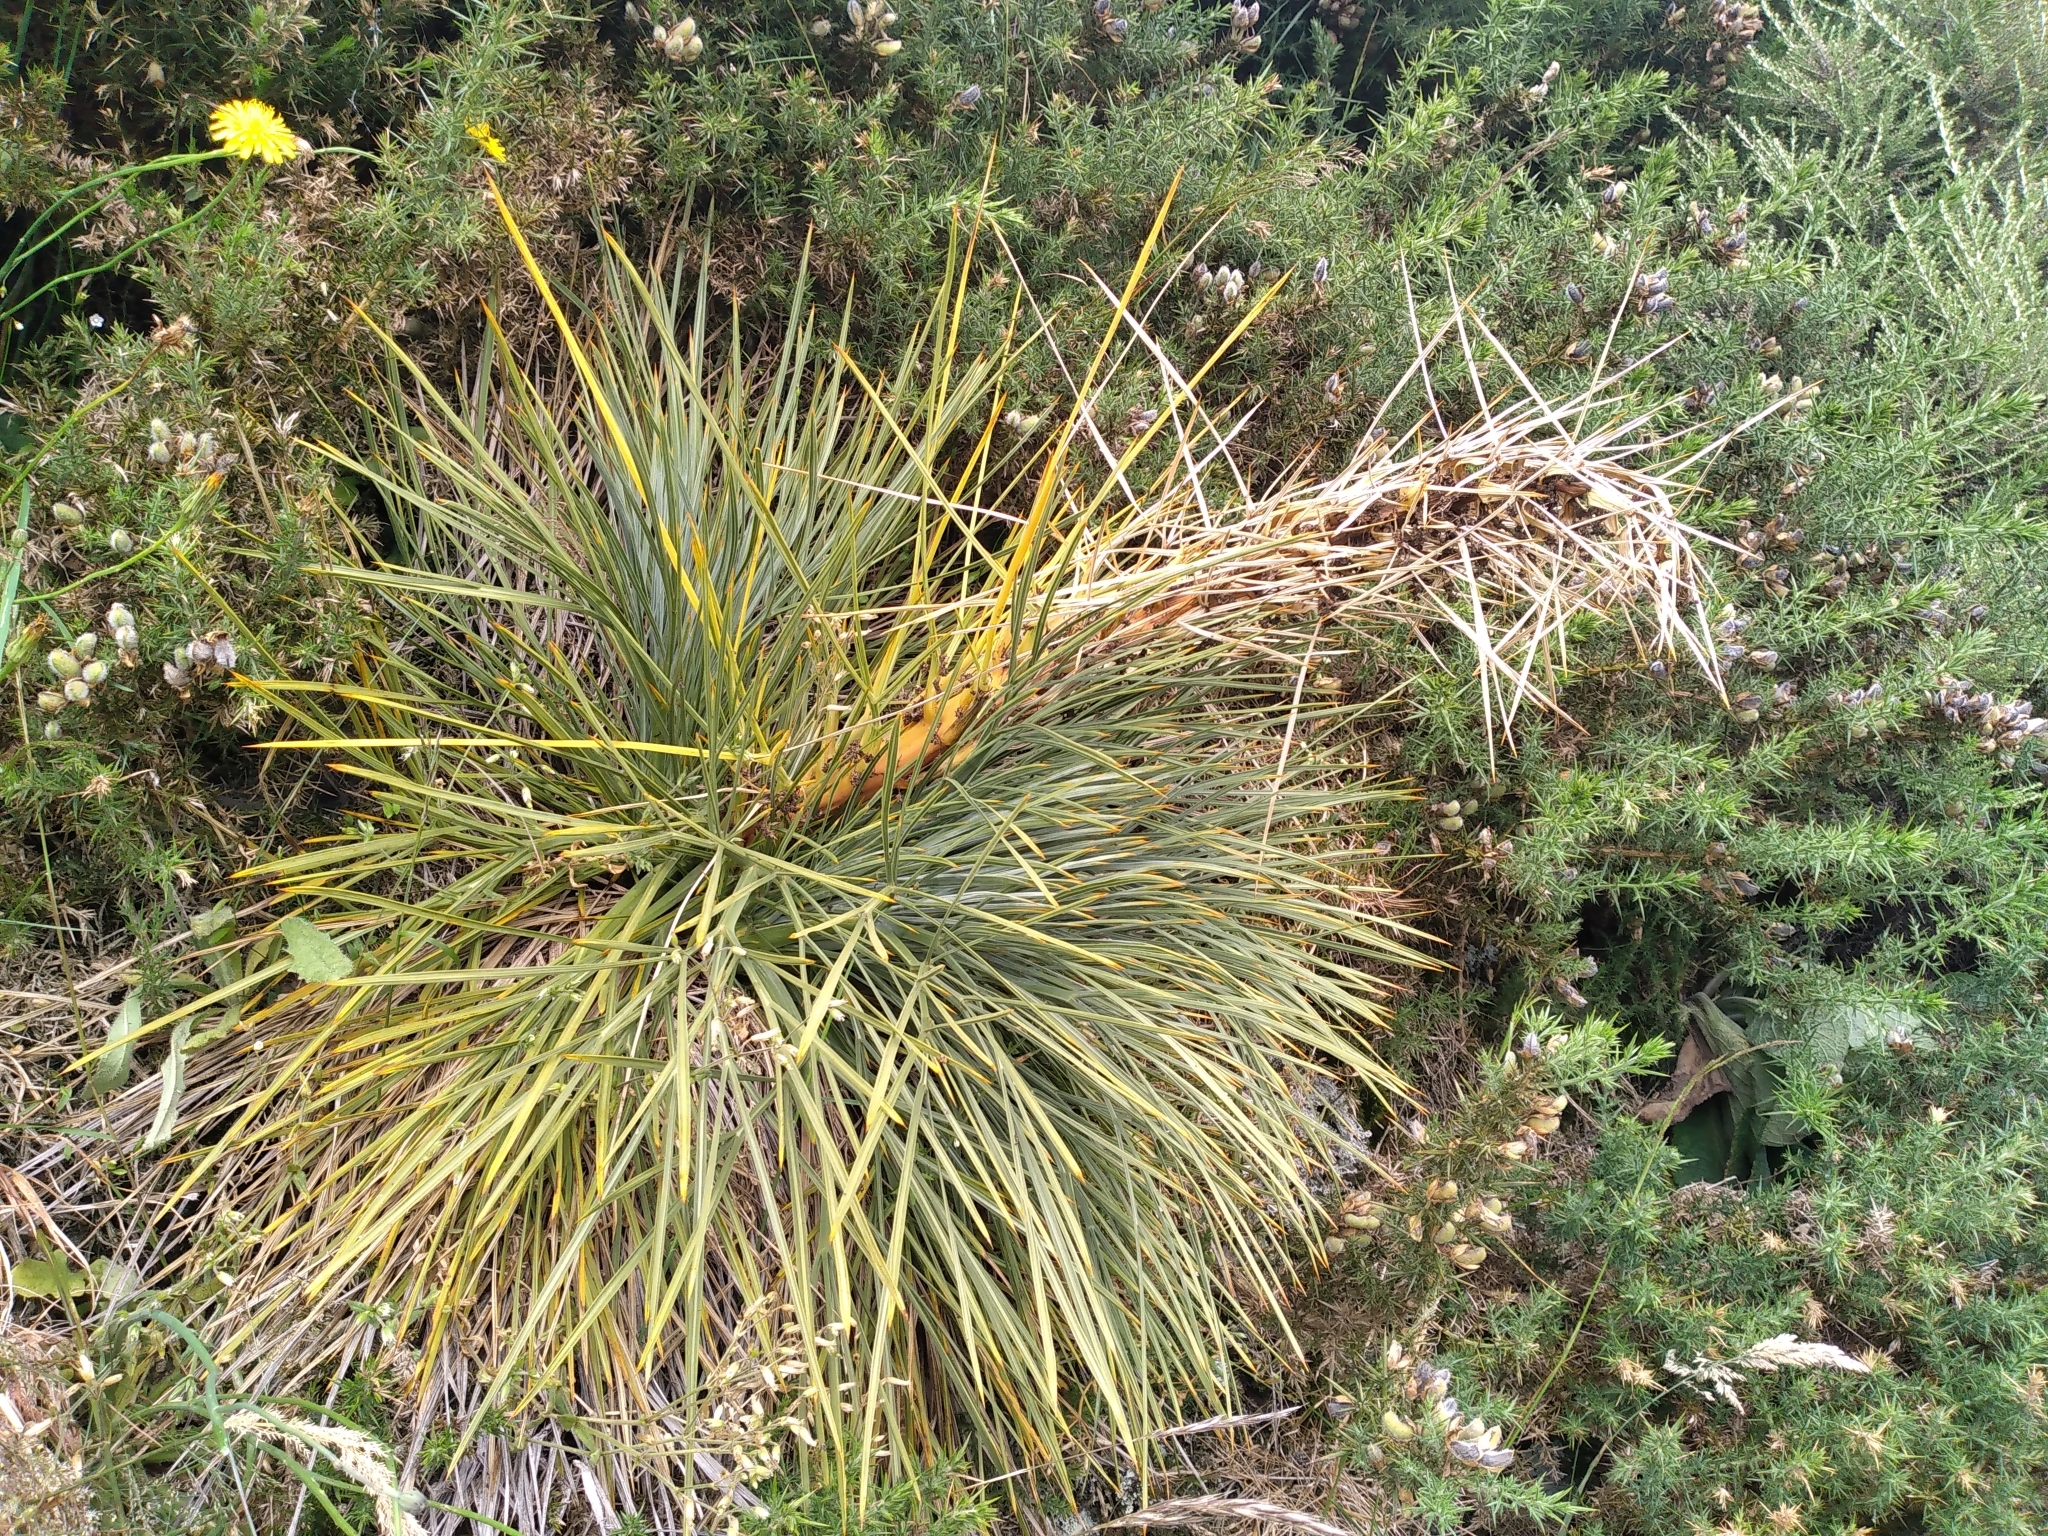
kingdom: Plantae
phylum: Tracheophyta
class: Magnoliopsida
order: Apiales
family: Apiaceae
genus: Aciphylla
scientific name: Aciphylla squarrosa
